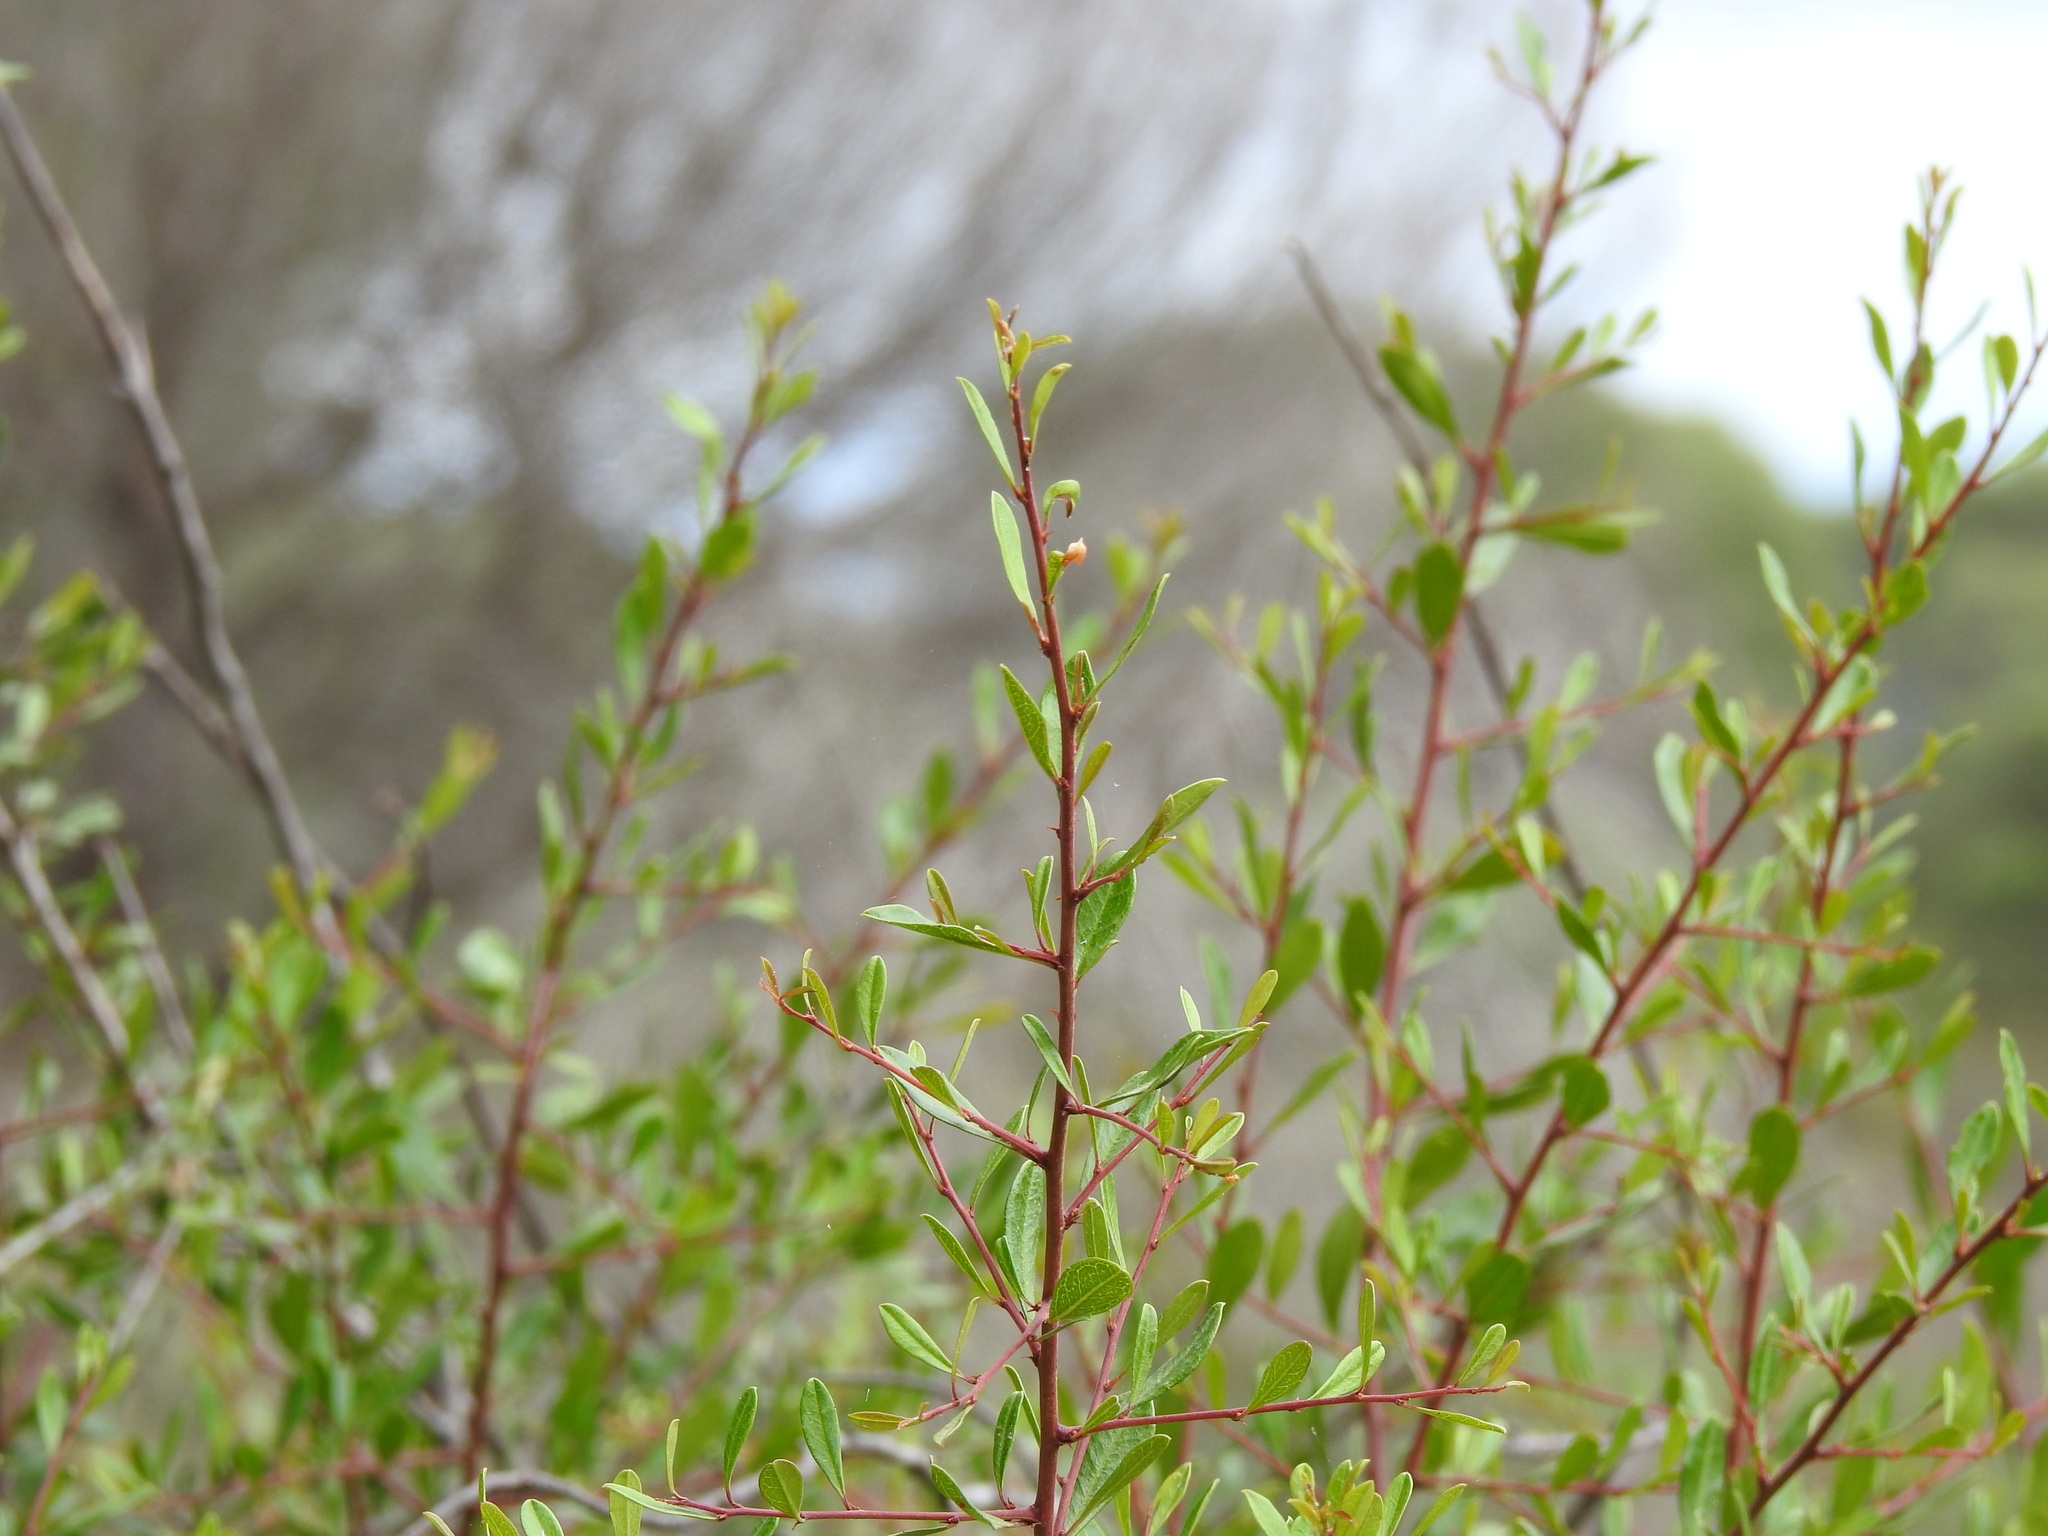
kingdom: Plantae
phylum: Tracheophyta
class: Magnoliopsida
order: Rosales
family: Rhamnaceae
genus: Rhamnus
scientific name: Rhamnus oleoides
